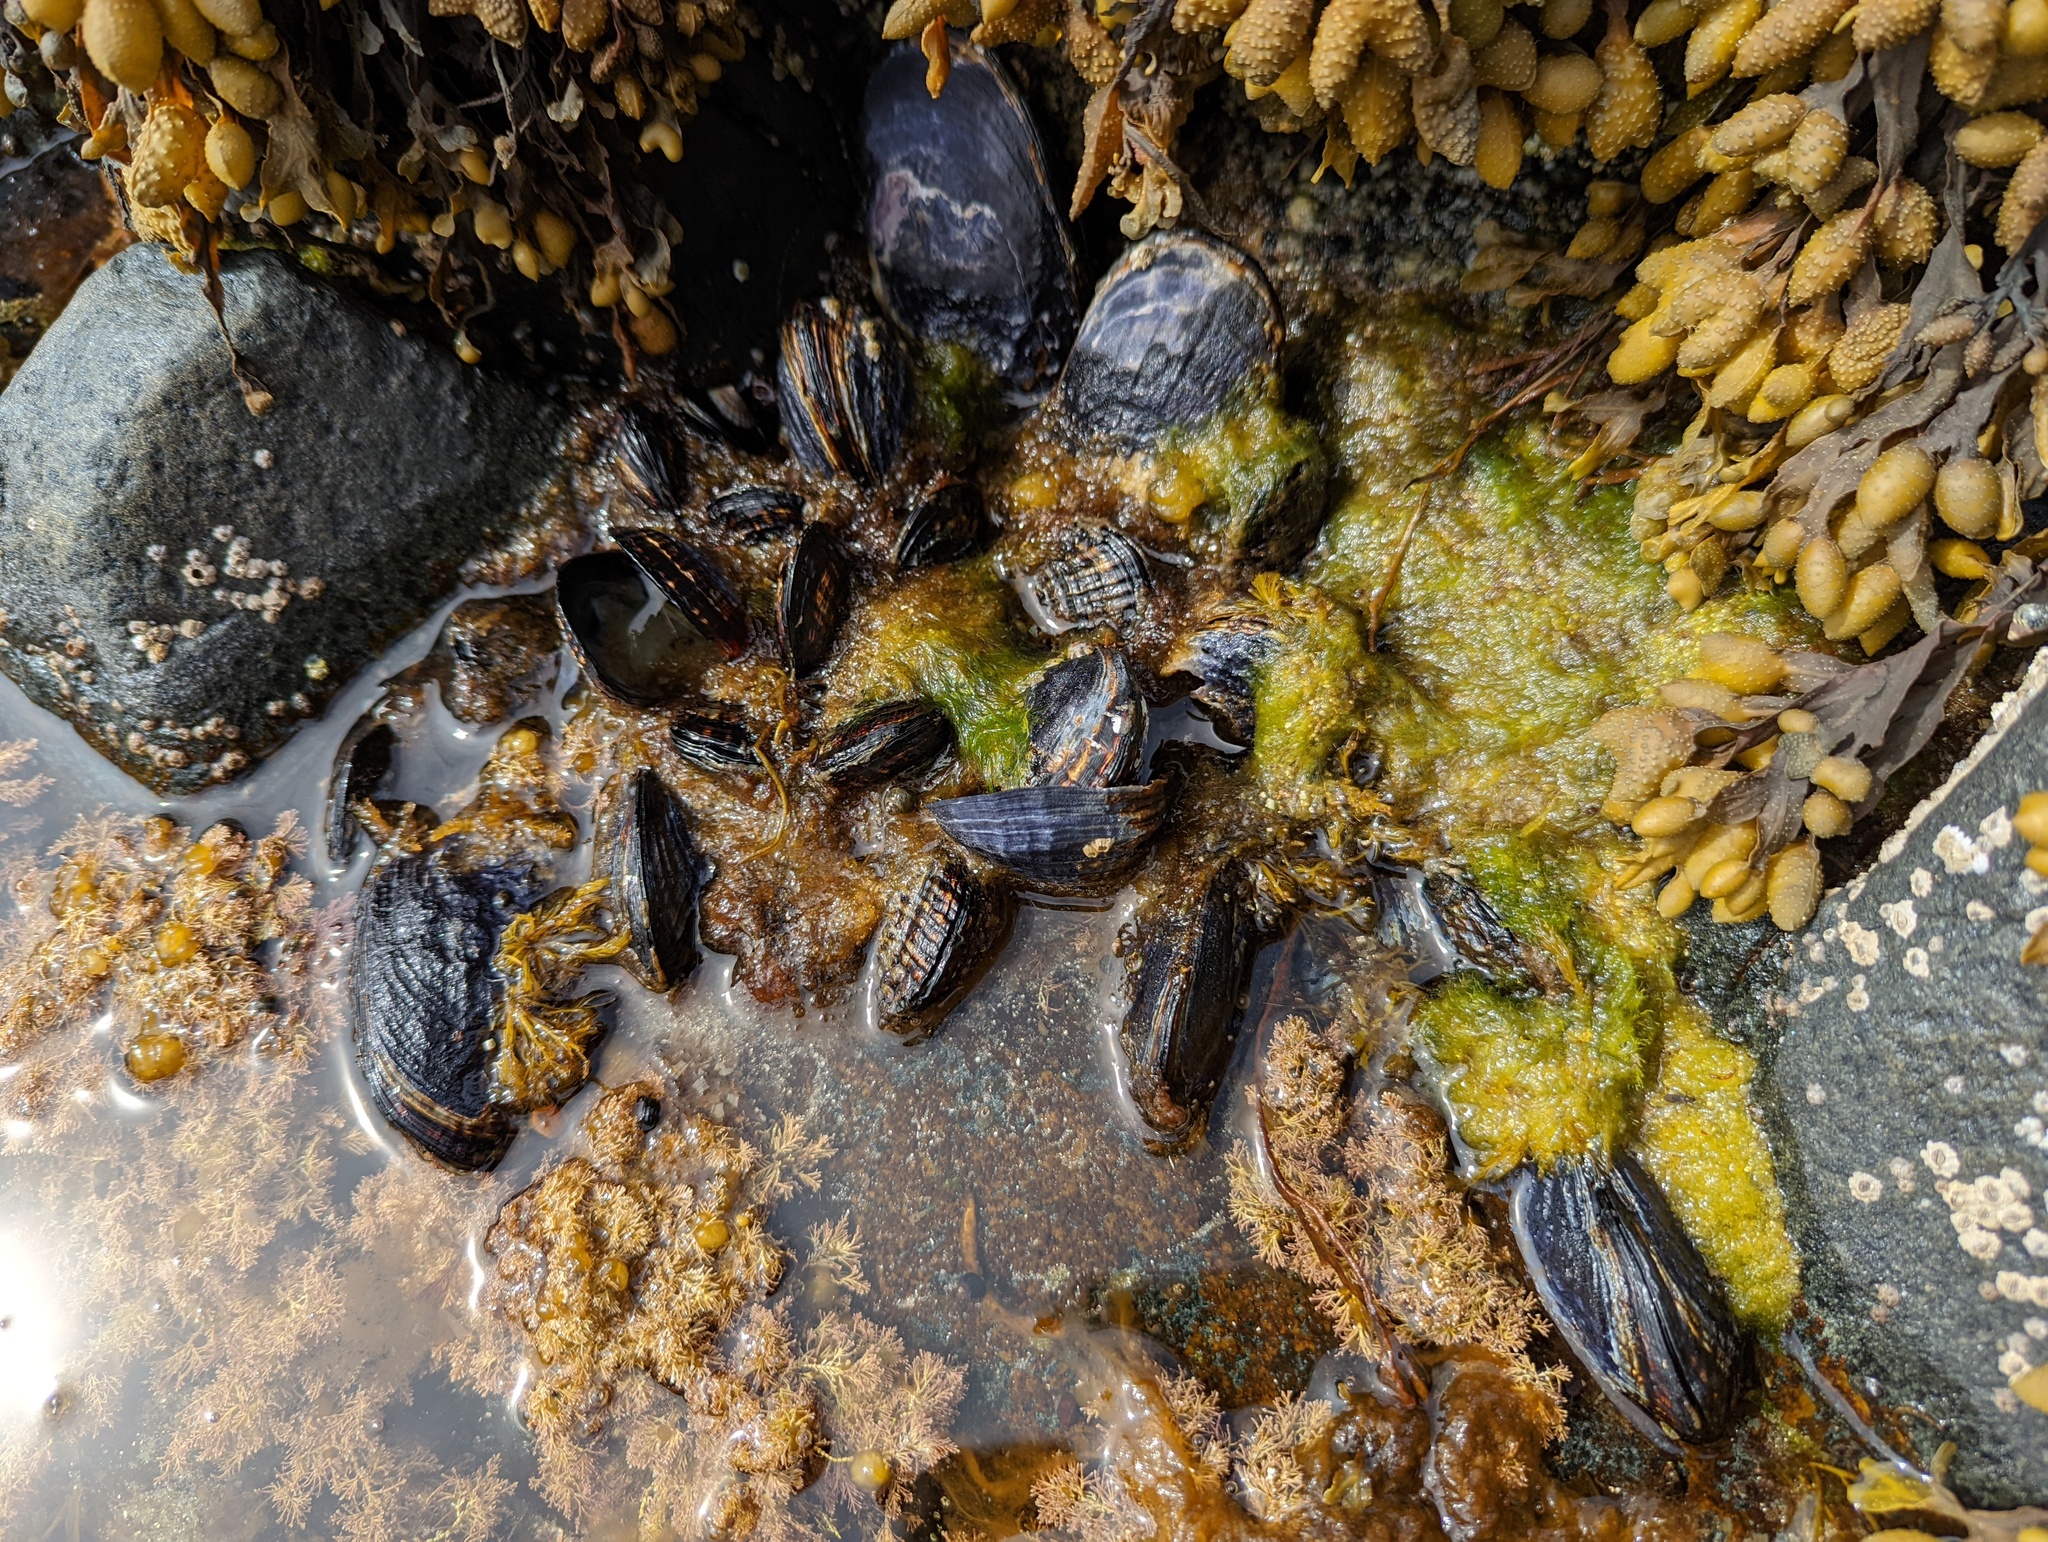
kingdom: Animalia
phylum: Mollusca
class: Bivalvia
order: Mytilida
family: Mytilidae
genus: Mytilus
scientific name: Mytilus californianus
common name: California mussel
